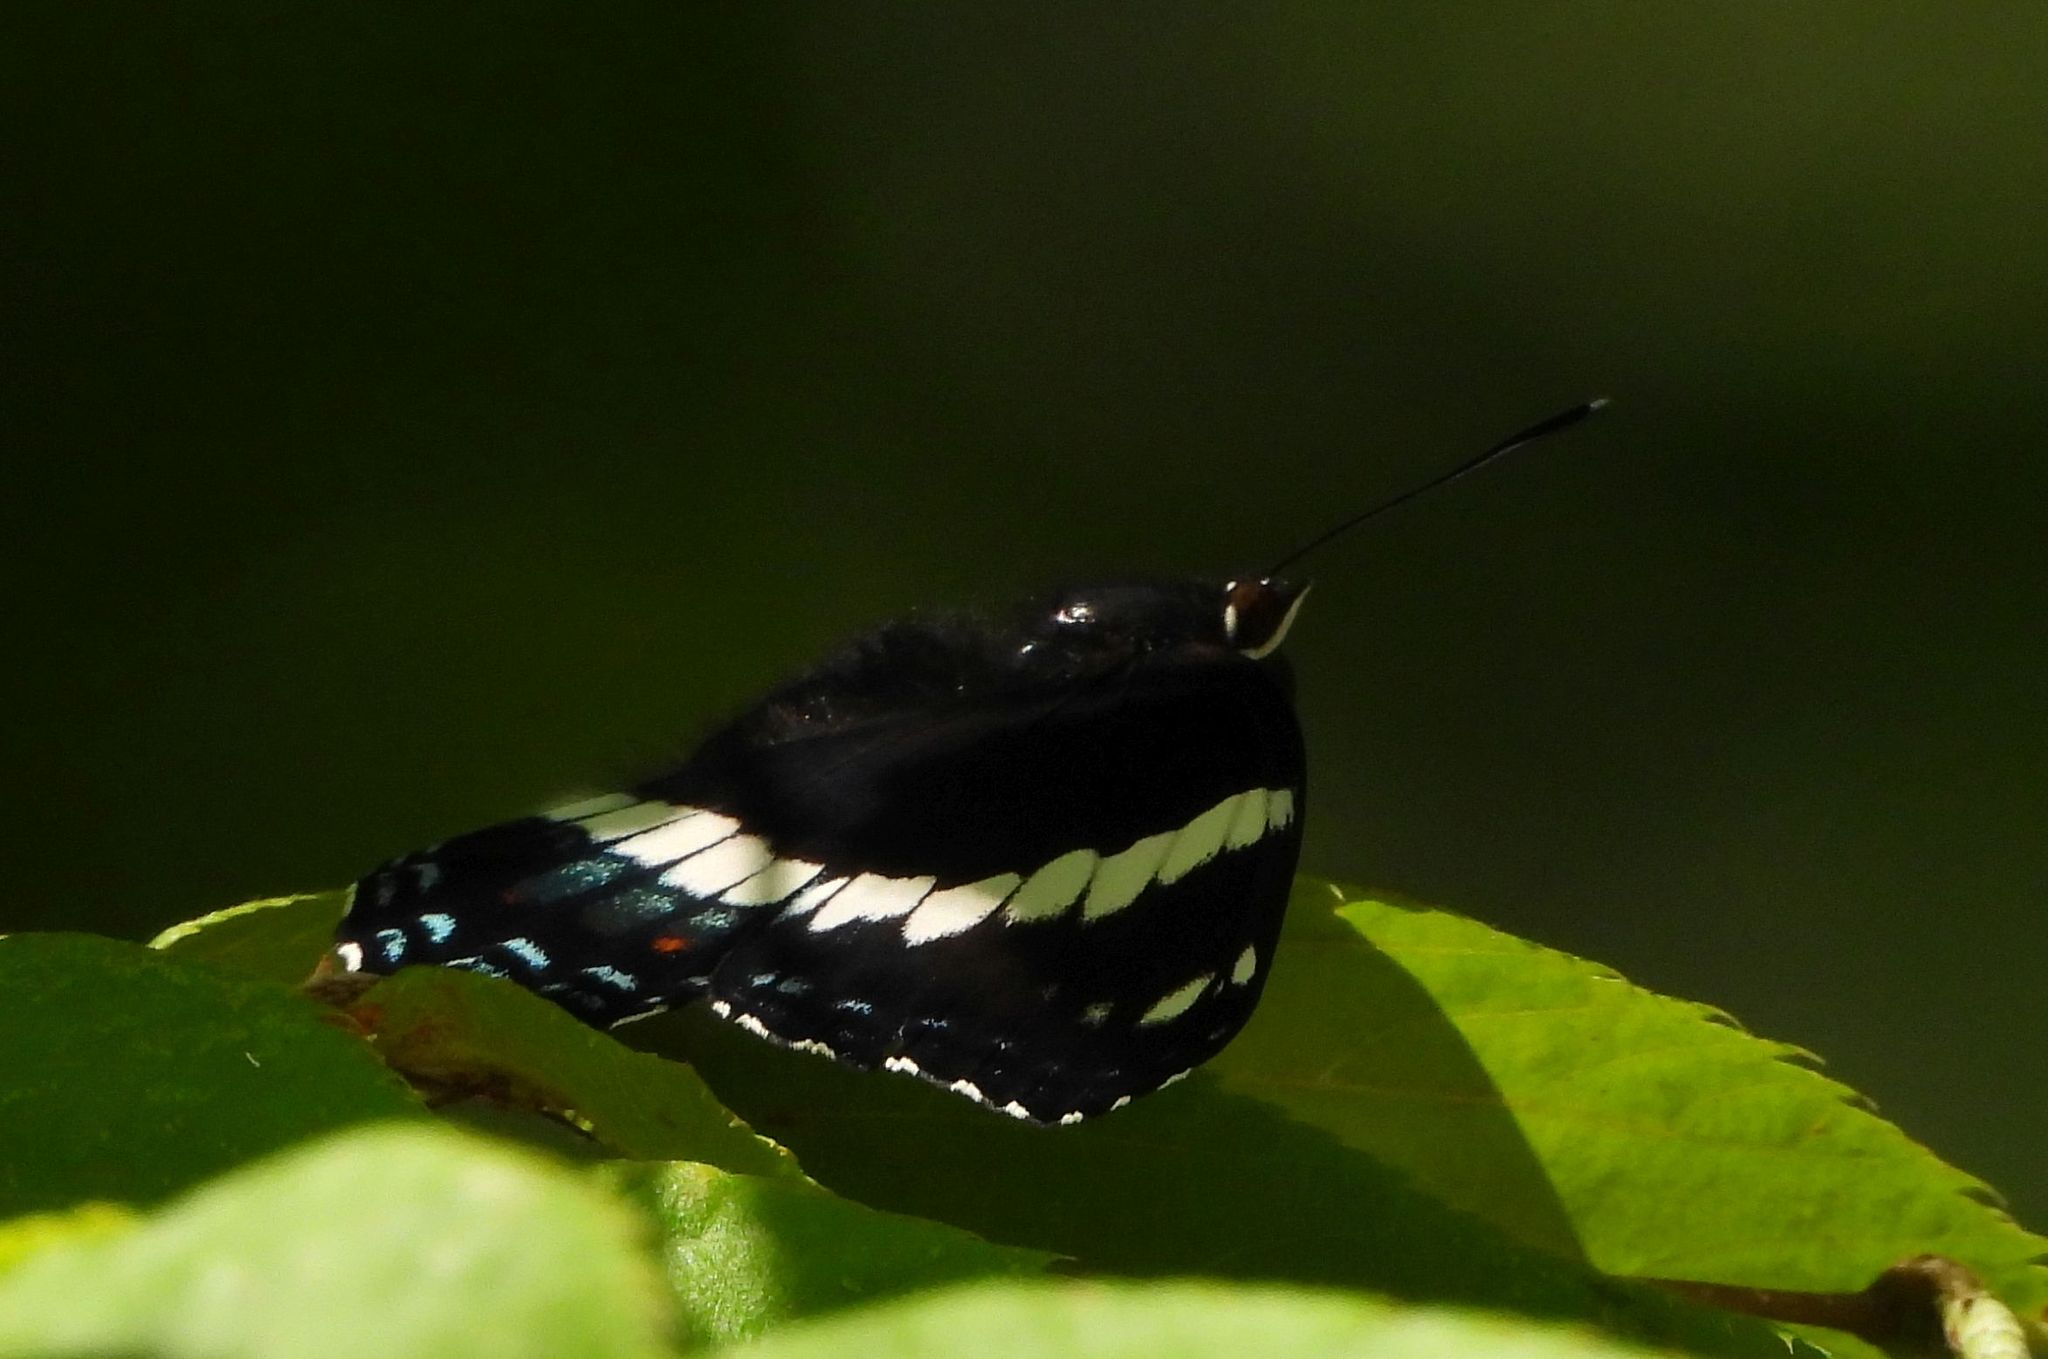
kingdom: Animalia
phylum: Arthropoda
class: Insecta
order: Lepidoptera
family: Nymphalidae
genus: Limenitis
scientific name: Limenitis arthemis
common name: Red-spotted admiral
